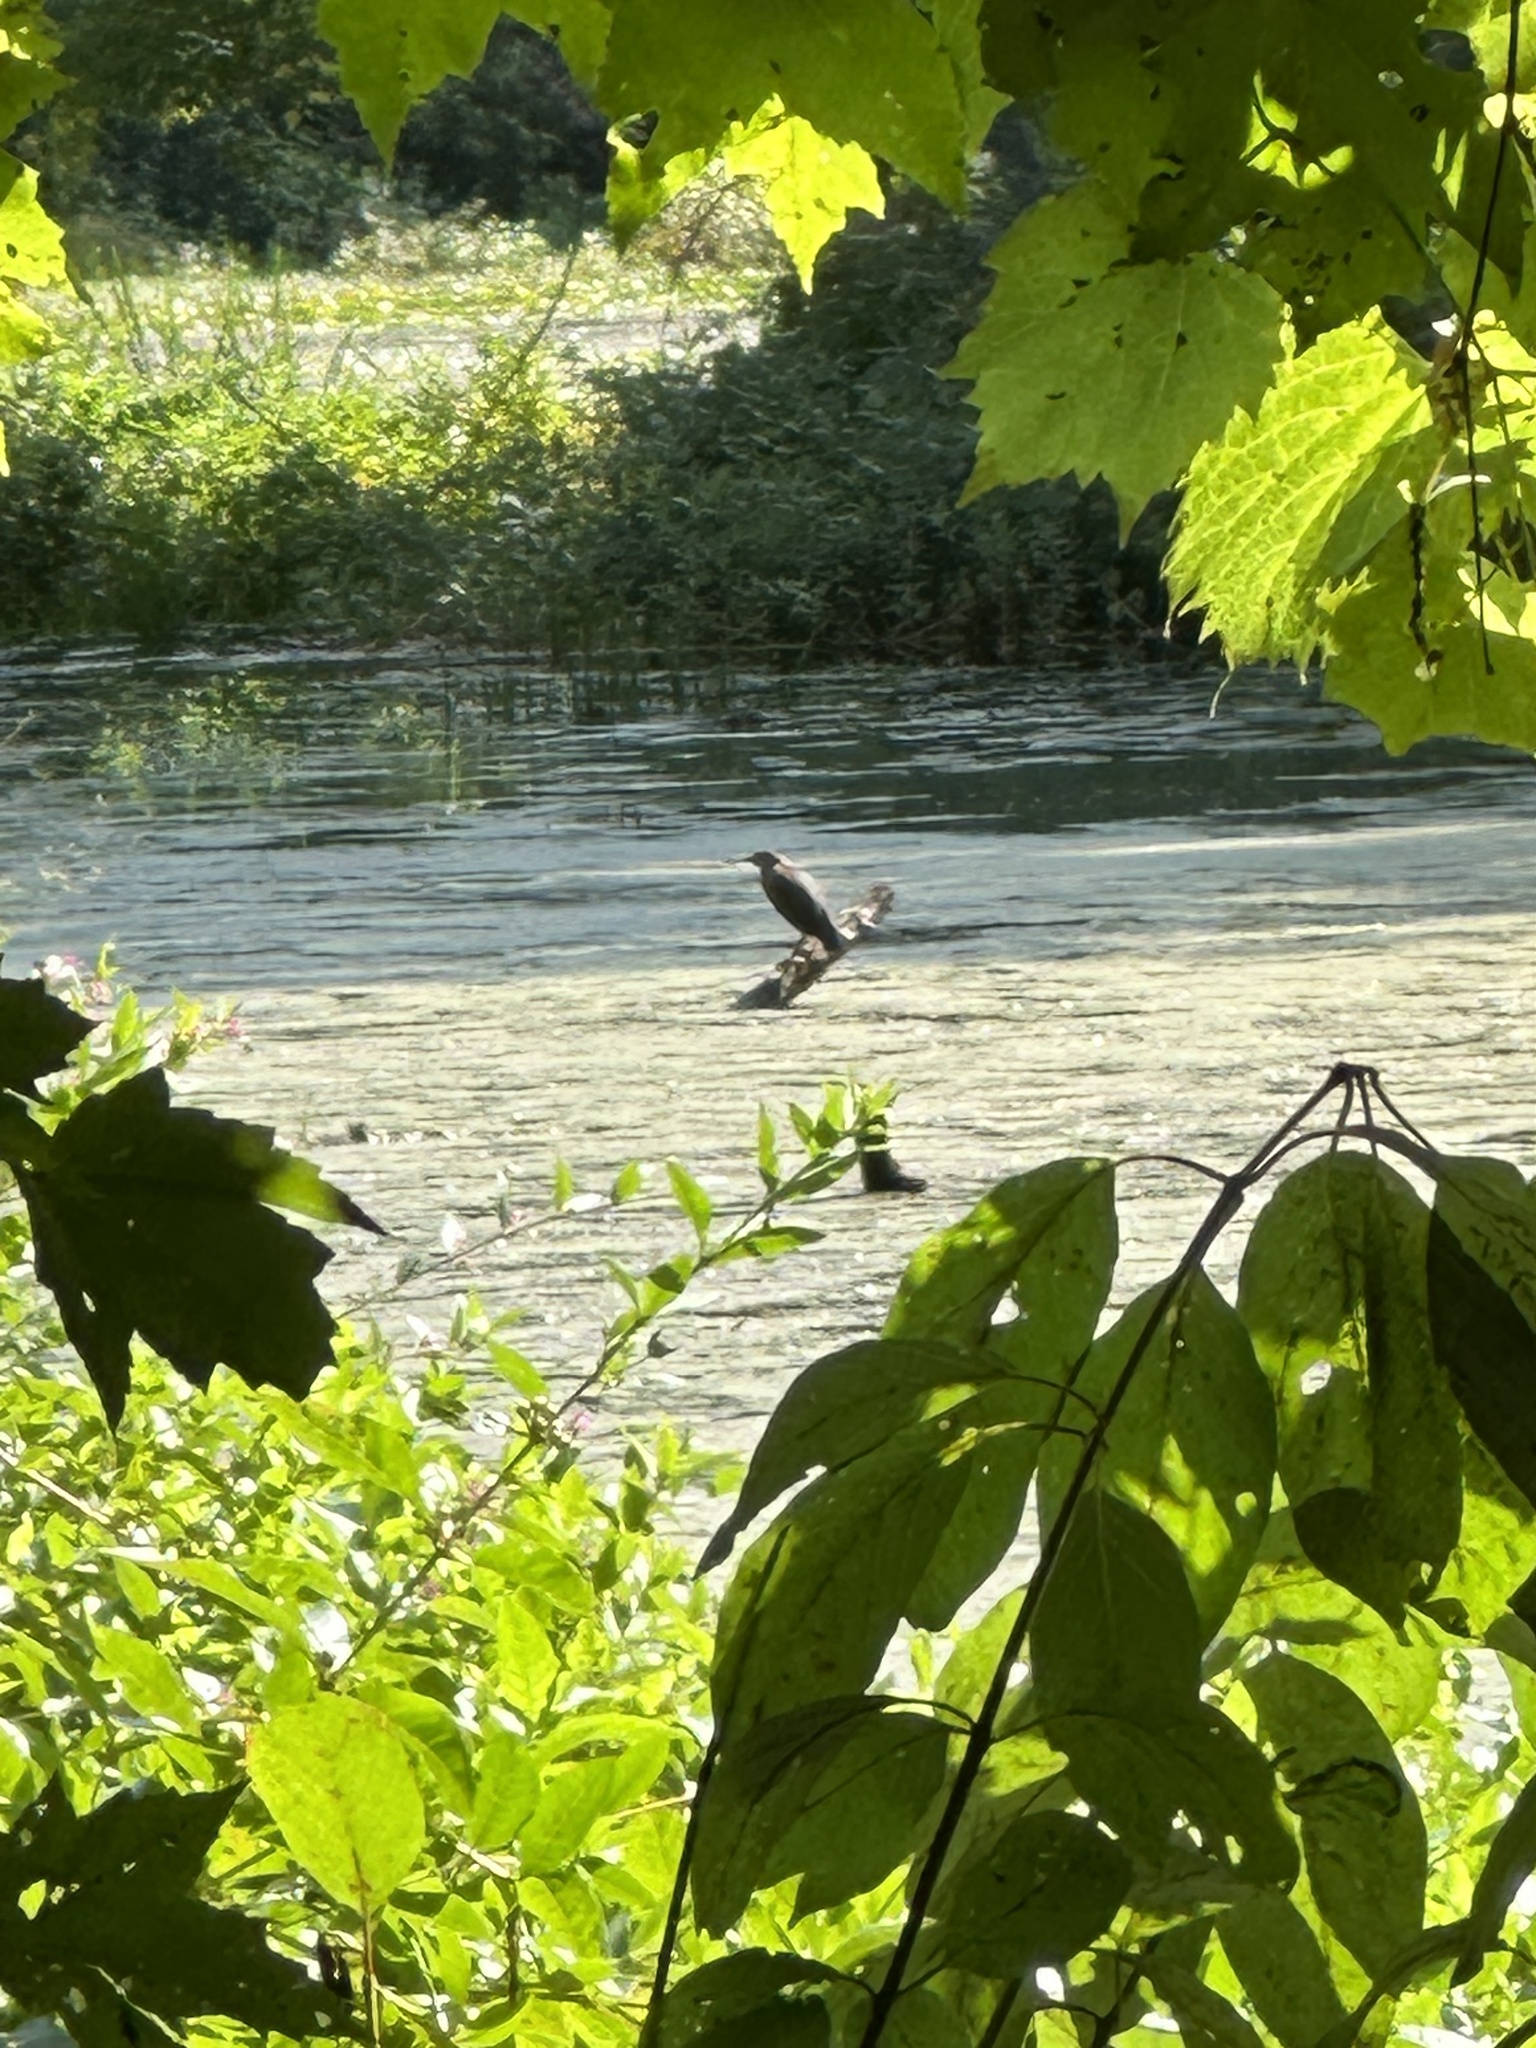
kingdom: Animalia
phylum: Chordata
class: Aves
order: Pelecaniformes
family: Ardeidae
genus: Butorides
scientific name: Butorides virescens
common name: Green heron
